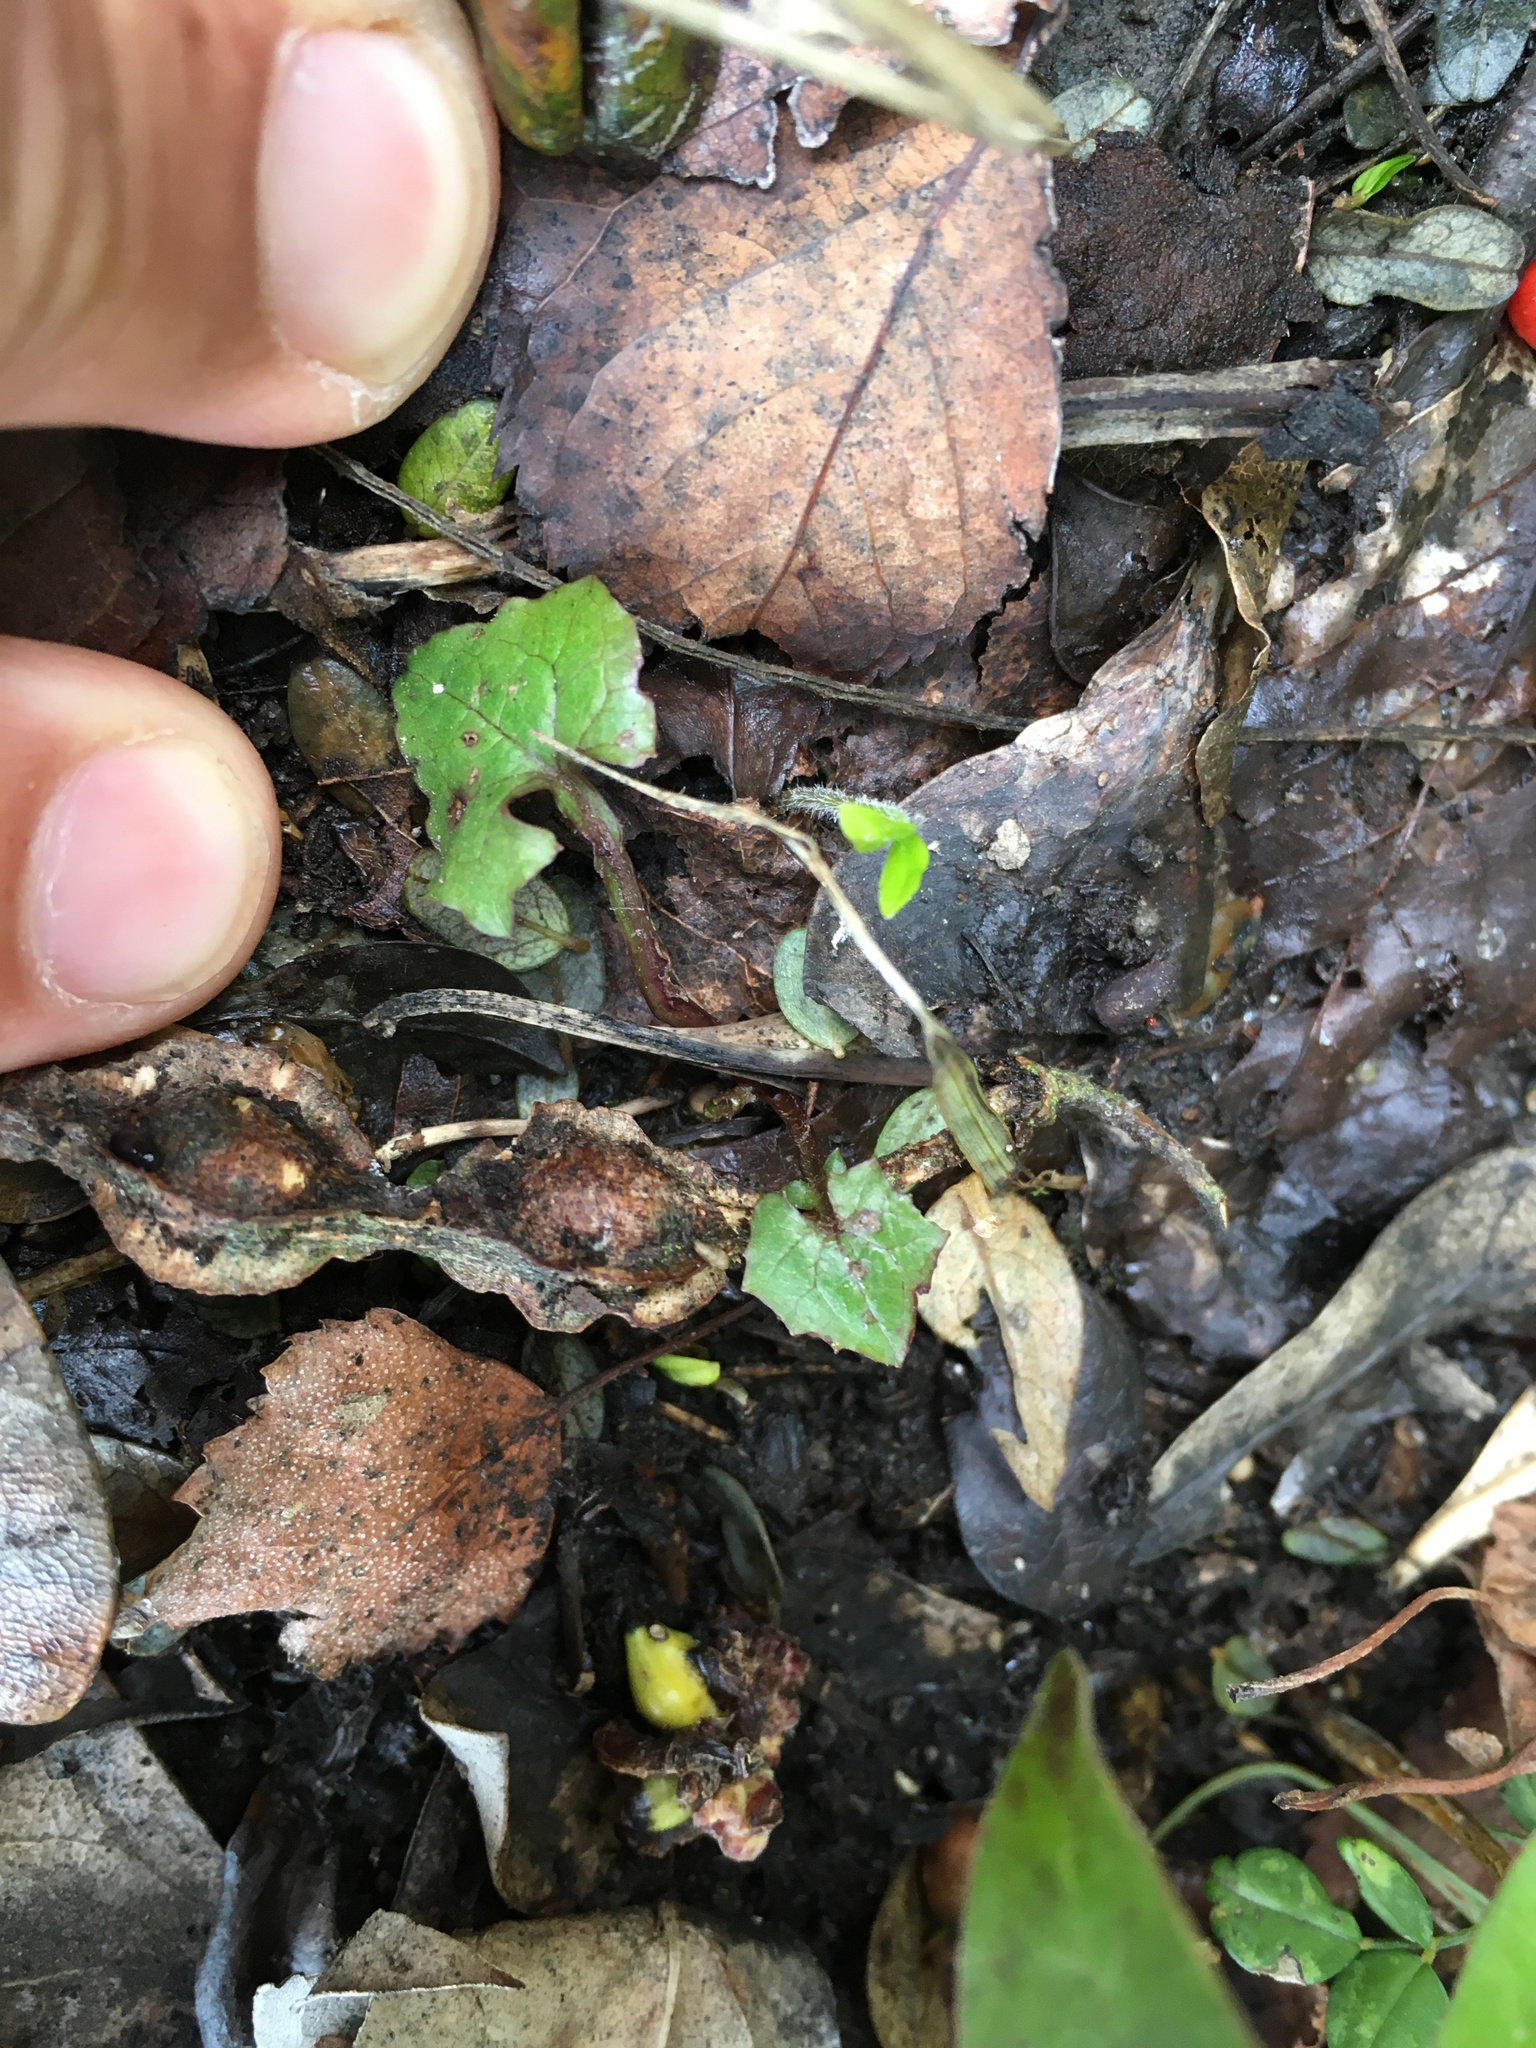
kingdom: Plantae
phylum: Tracheophyta
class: Magnoliopsida
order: Asterales
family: Asteraceae
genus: Mycelis
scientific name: Mycelis muralis
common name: Wall lettuce
